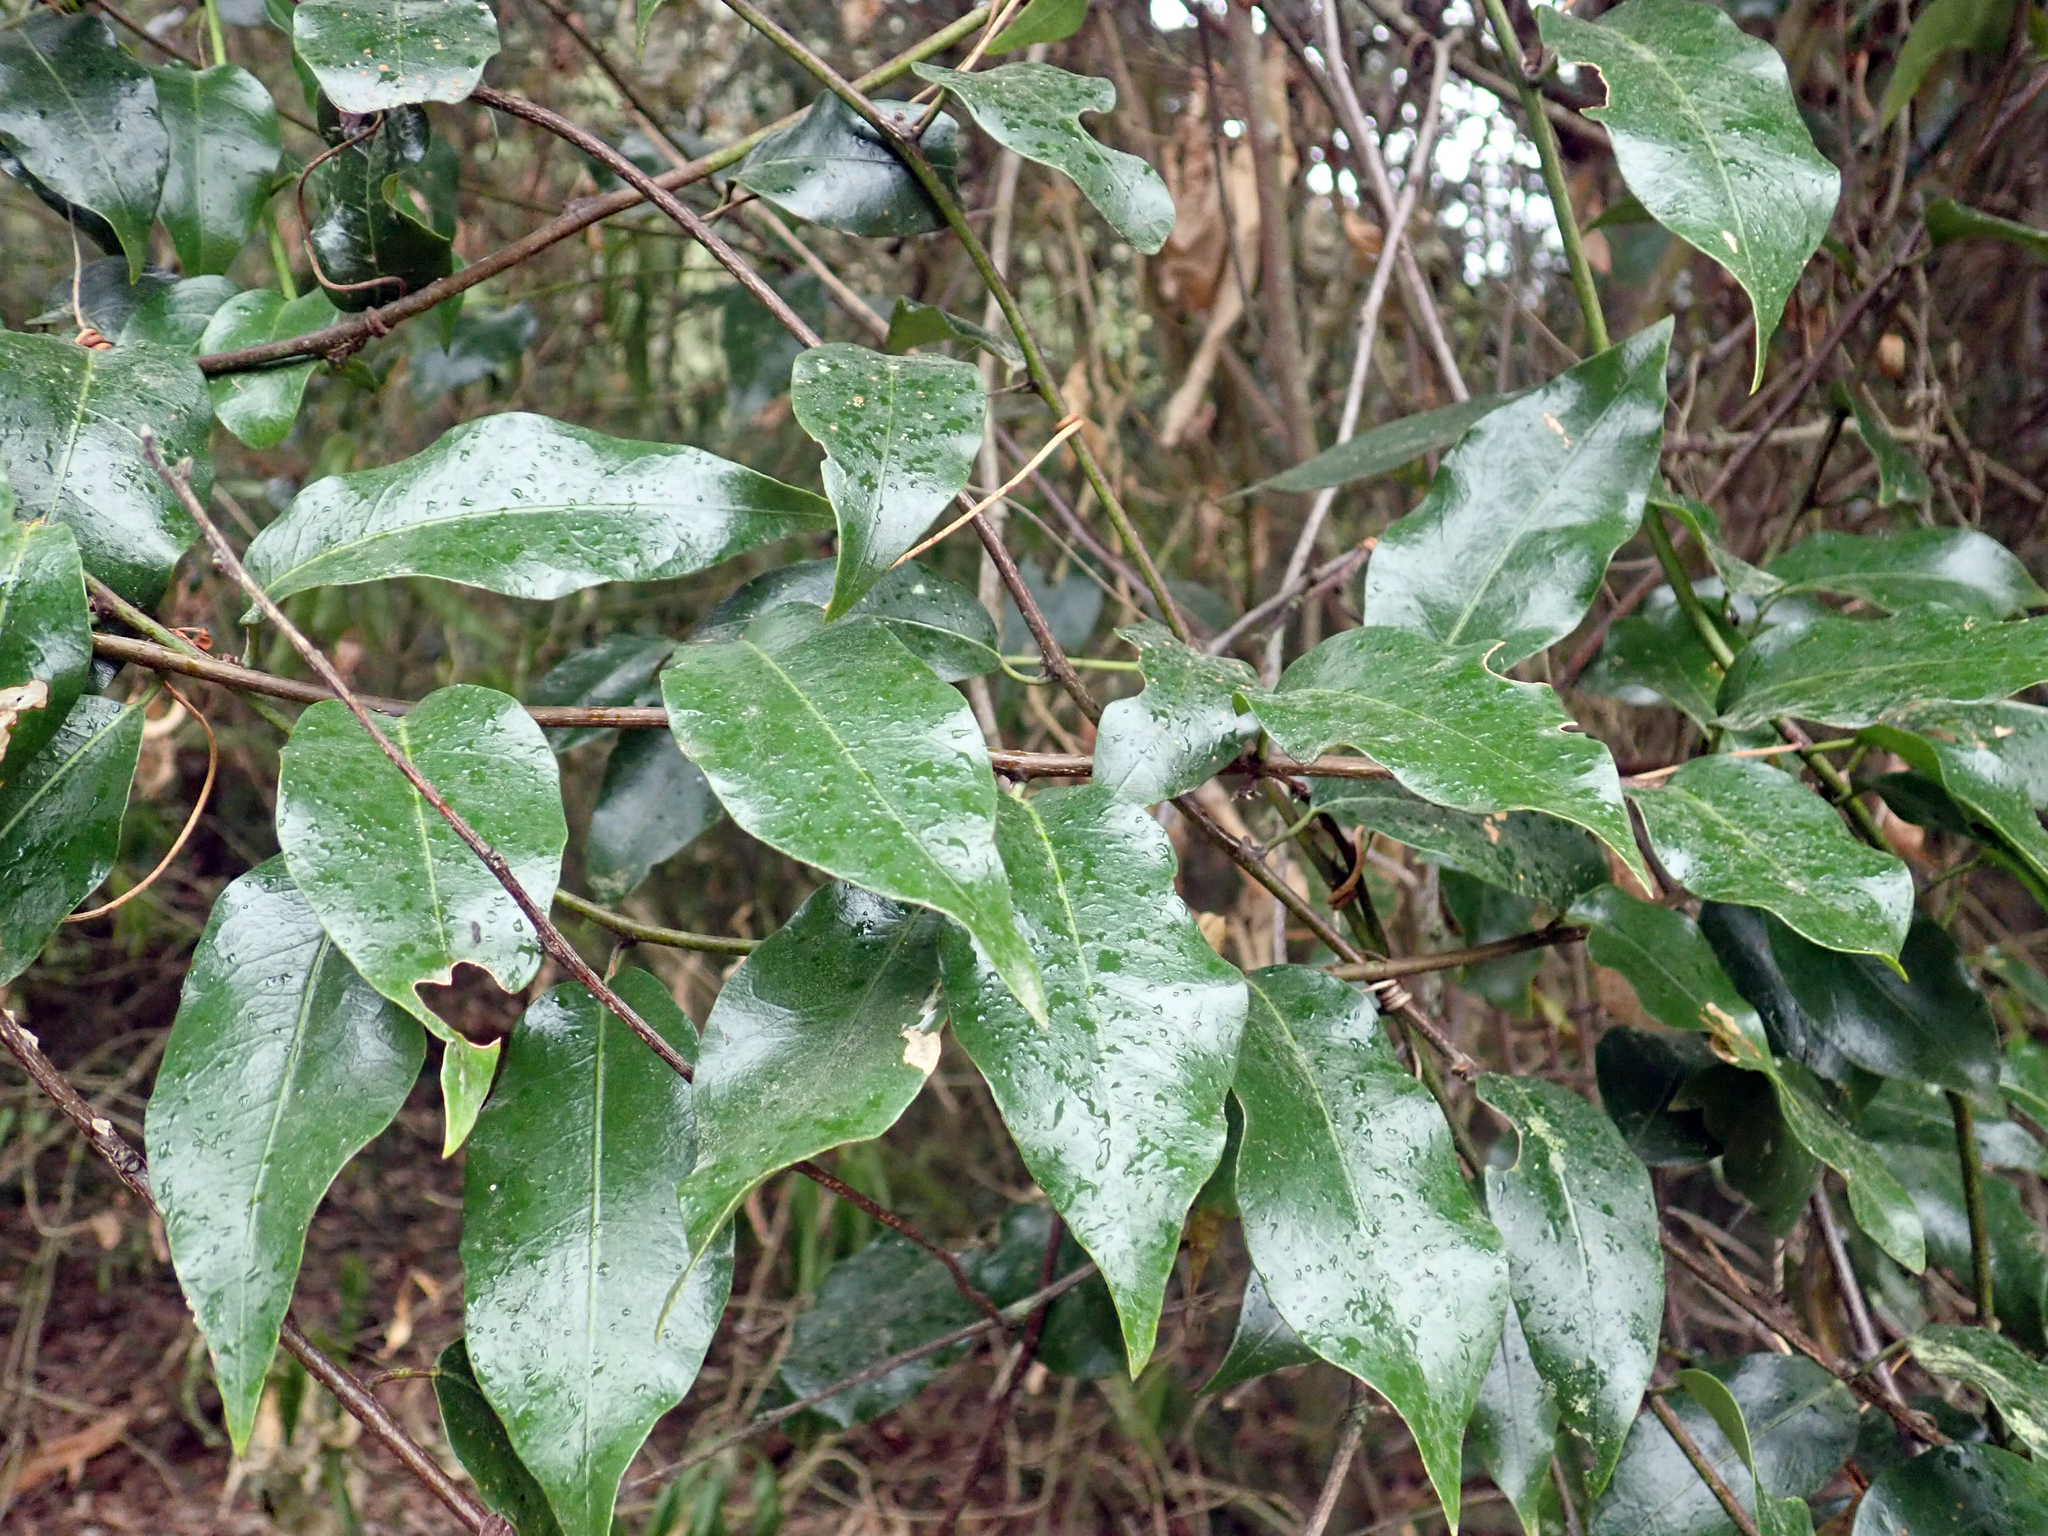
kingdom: Plantae
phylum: Tracheophyta
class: Magnoliopsida
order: Malpighiales
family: Passifloraceae
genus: Passiflora
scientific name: Passiflora tetrandra
